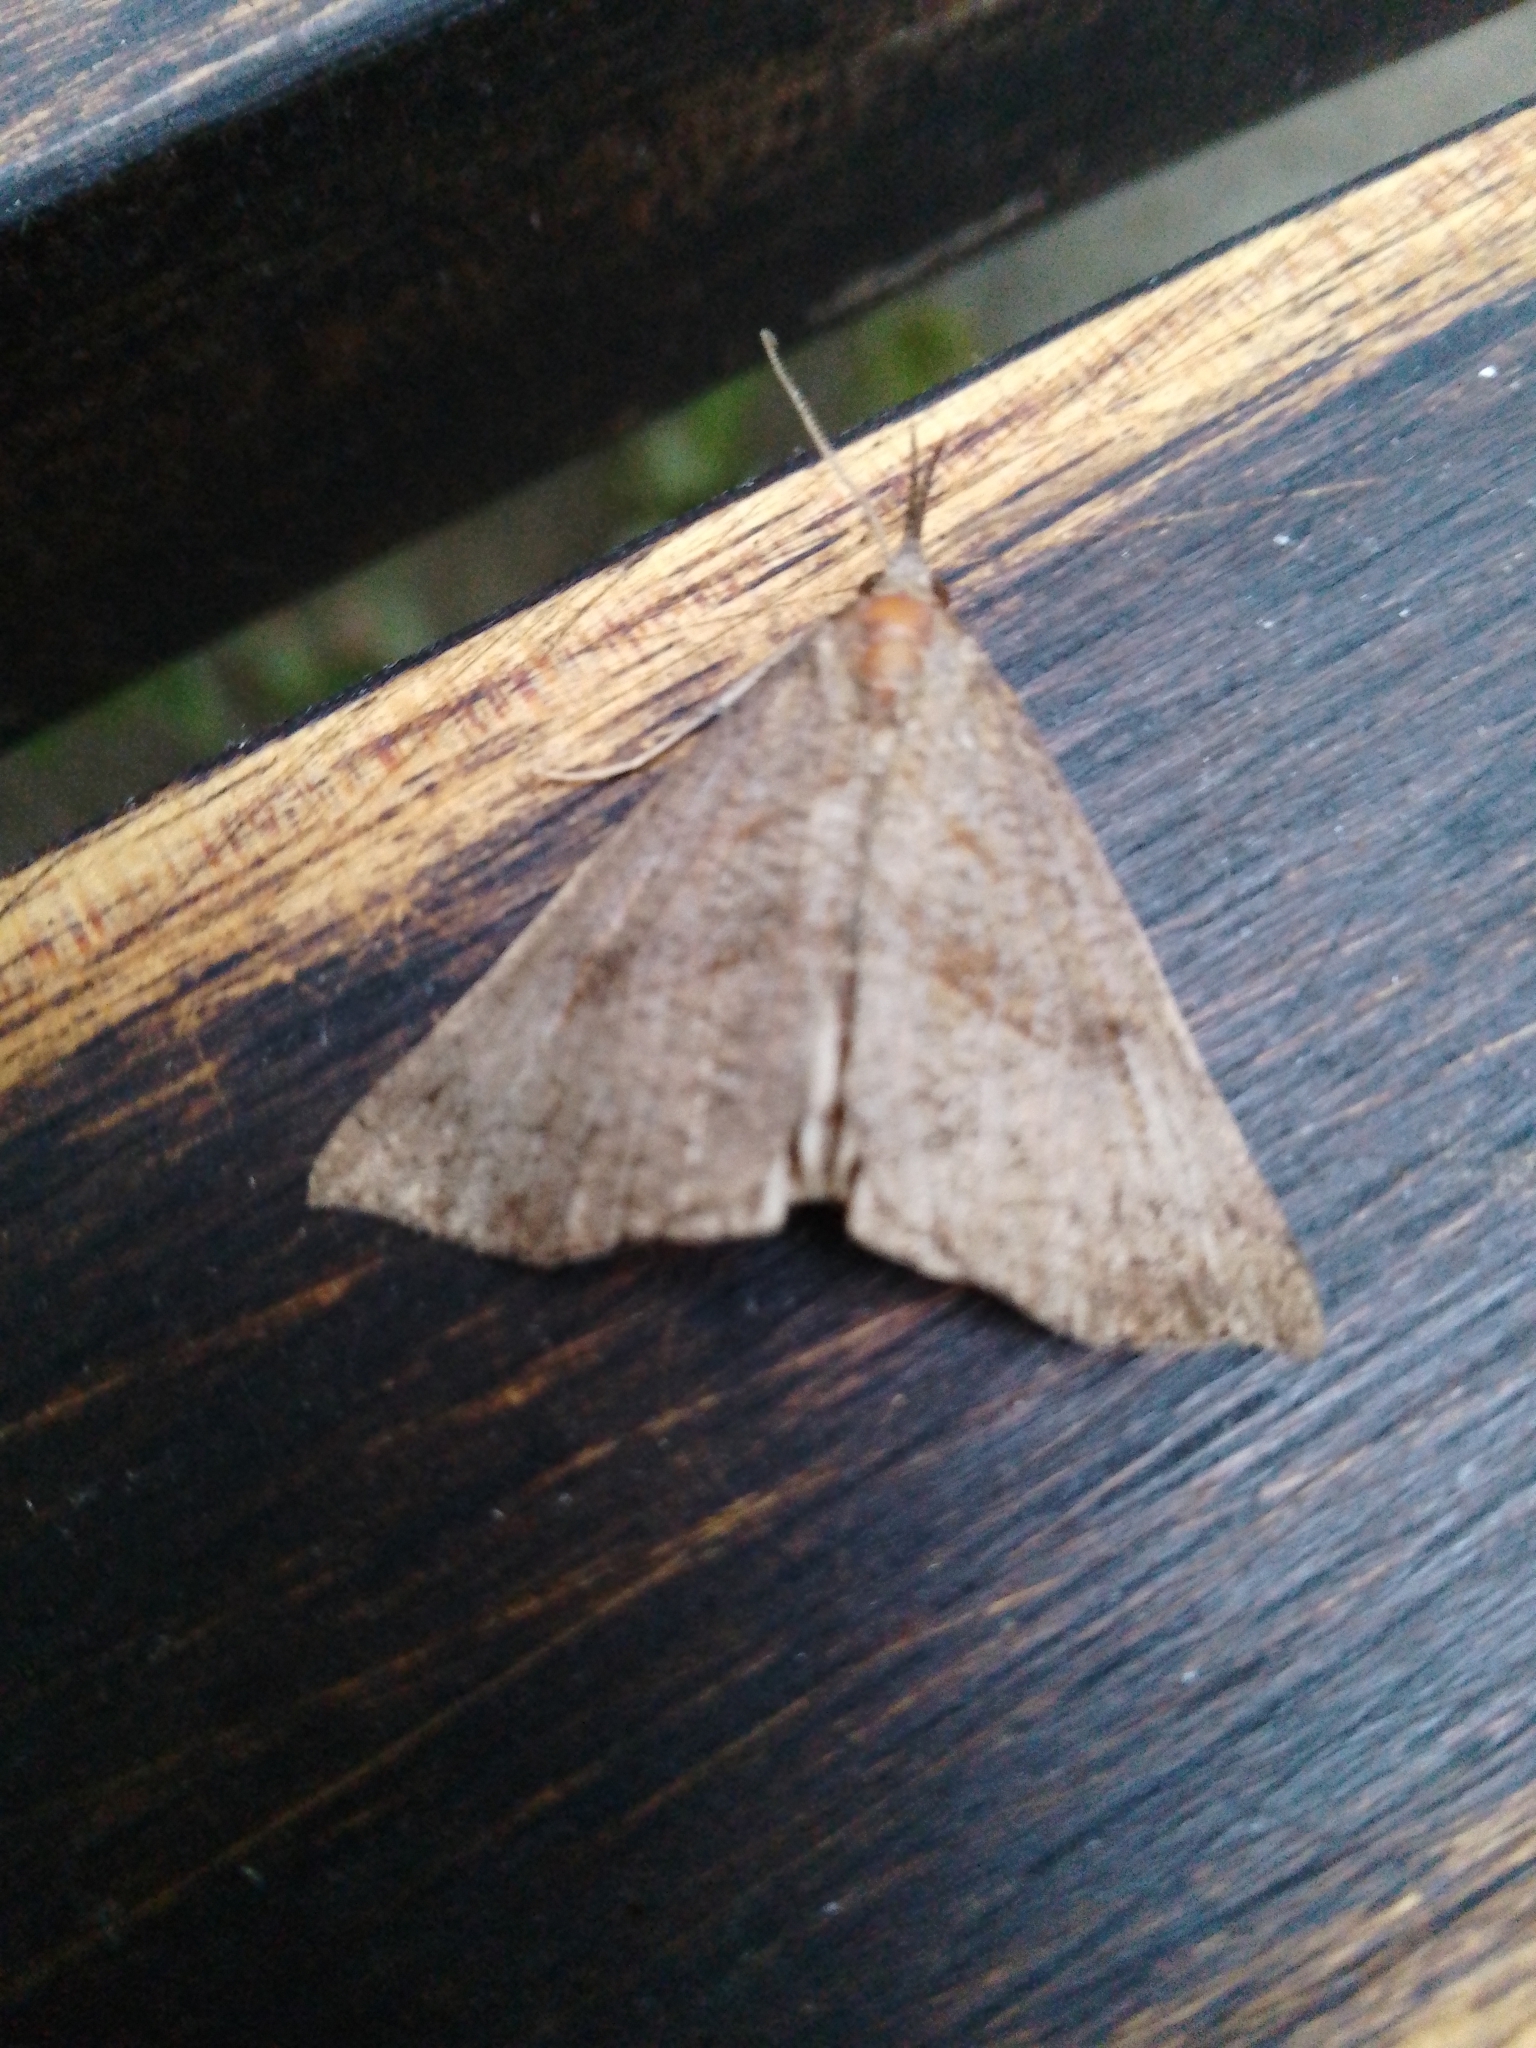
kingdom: Animalia
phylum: Arthropoda
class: Insecta
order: Lepidoptera
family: Erebidae
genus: Hypena
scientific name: Hypena proboscidalis
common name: Snout
